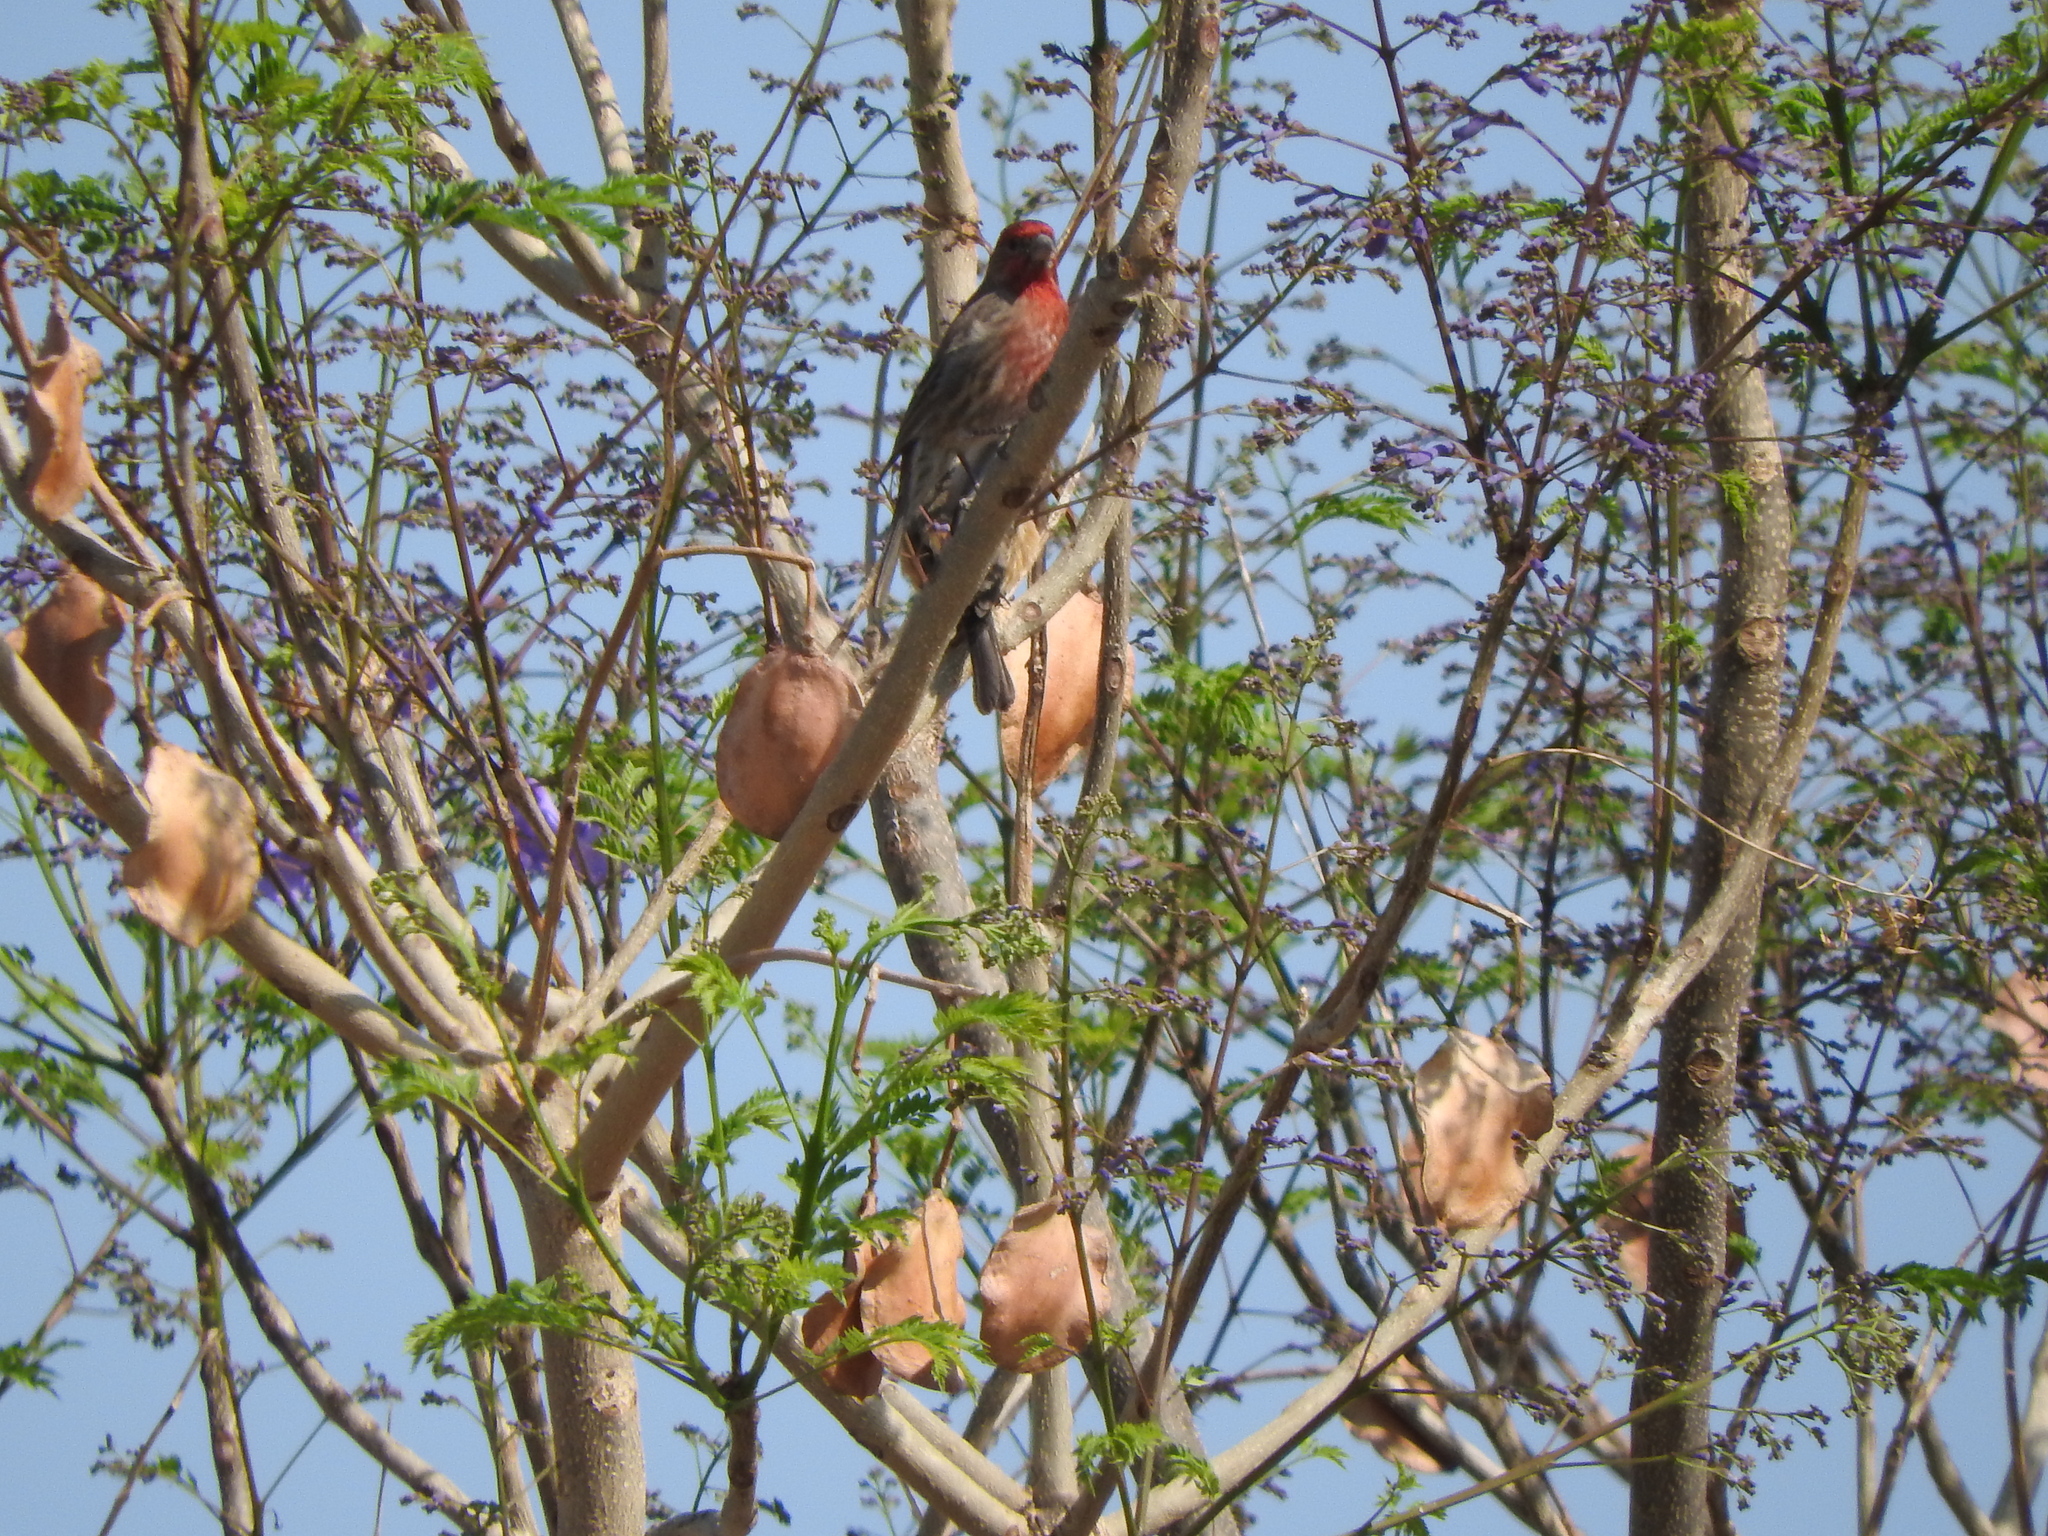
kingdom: Animalia
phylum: Chordata
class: Aves
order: Passeriformes
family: Fringillidae
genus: Haemorhous
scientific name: Haemorhous mexicanus
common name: House finch
